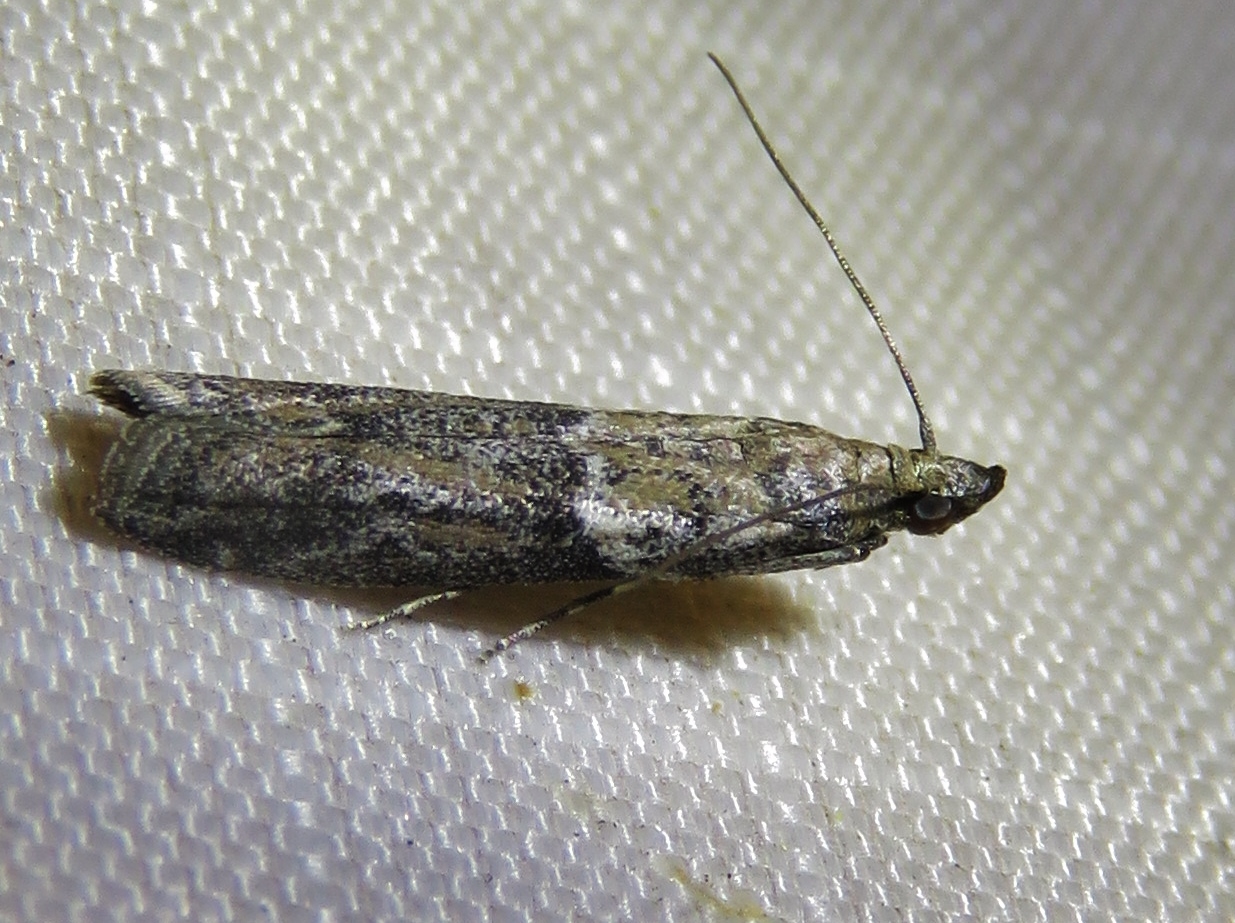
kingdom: Animalia
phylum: Arthropoda
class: Insecta
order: Lepidoptera
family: Pyralidae
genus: Ephestiodes
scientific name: Ephestiodes gilvescentella
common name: Moth
